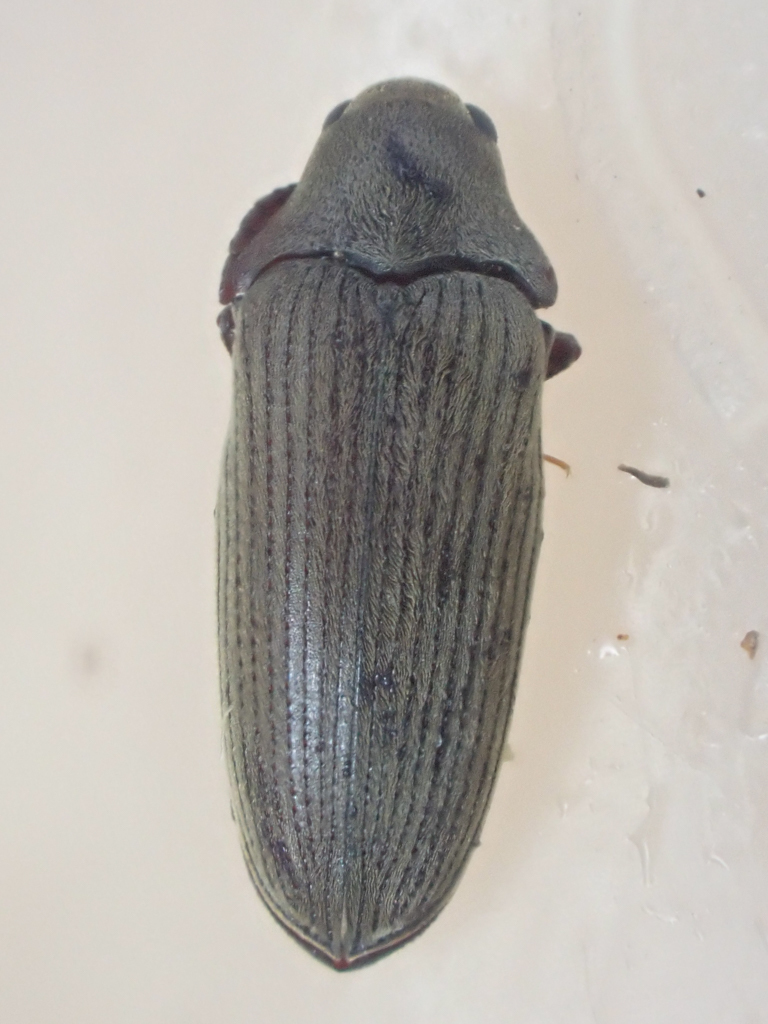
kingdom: Animalia
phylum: Arthropoda
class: Insecta
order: Coleoptera
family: Throscidae
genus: Pactopus
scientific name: Pactopus hornii
